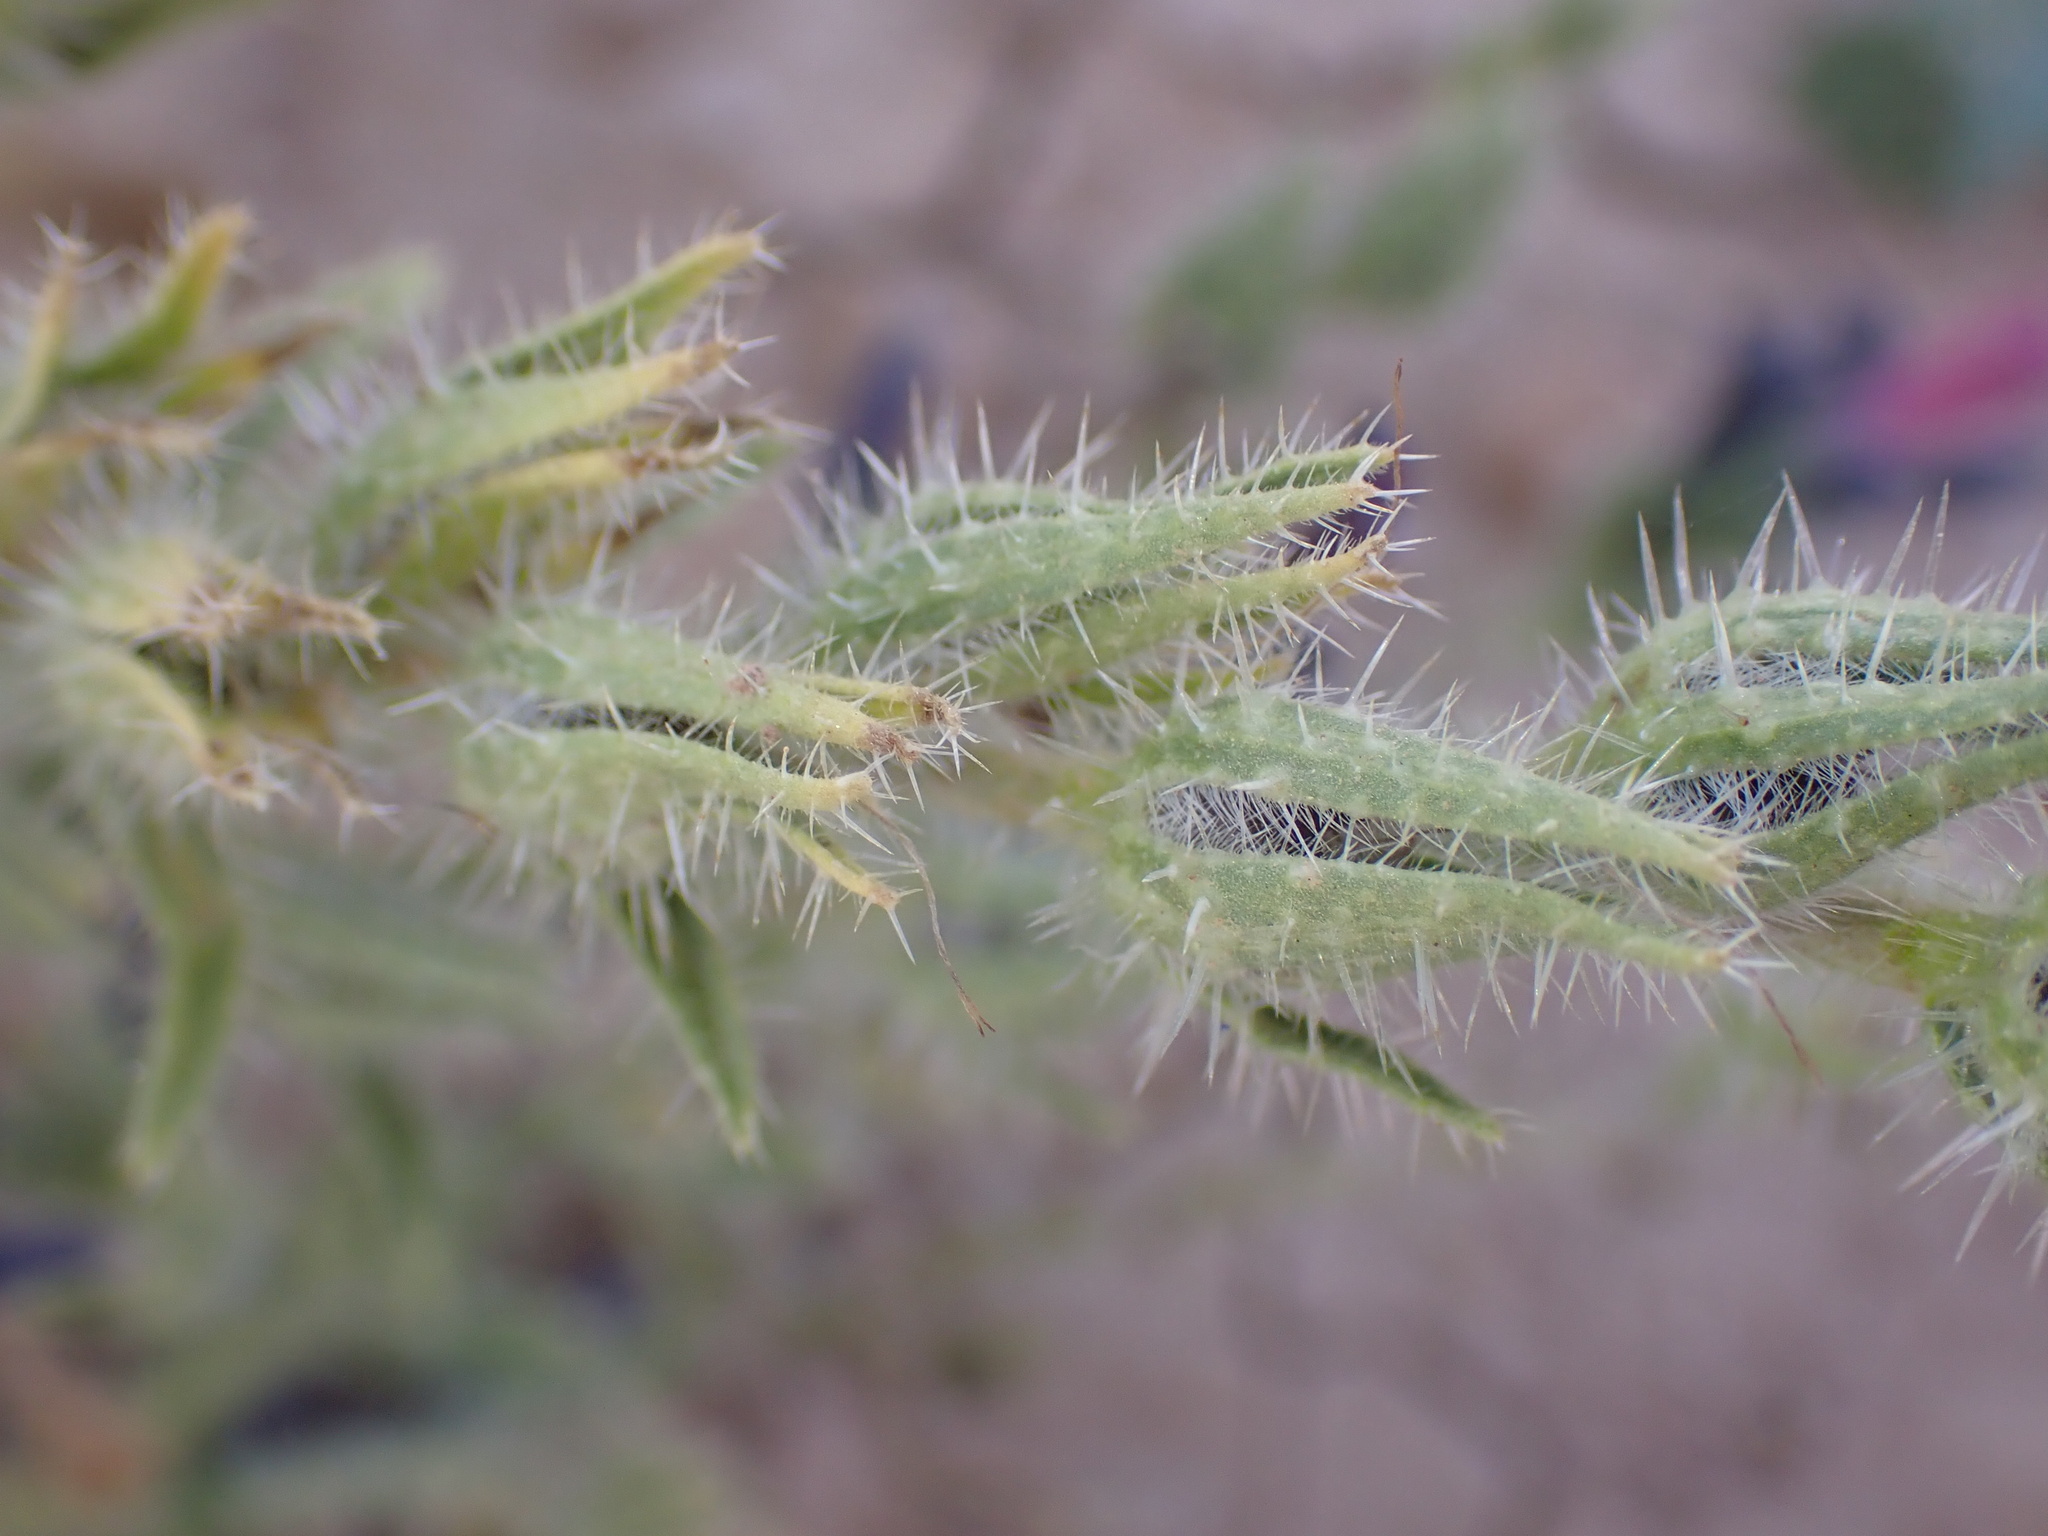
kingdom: Plantae
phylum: Tracheophyta
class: Magnoliopsida
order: Boraginales
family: Boraginaceae
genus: Echium
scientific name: Echium horridum
